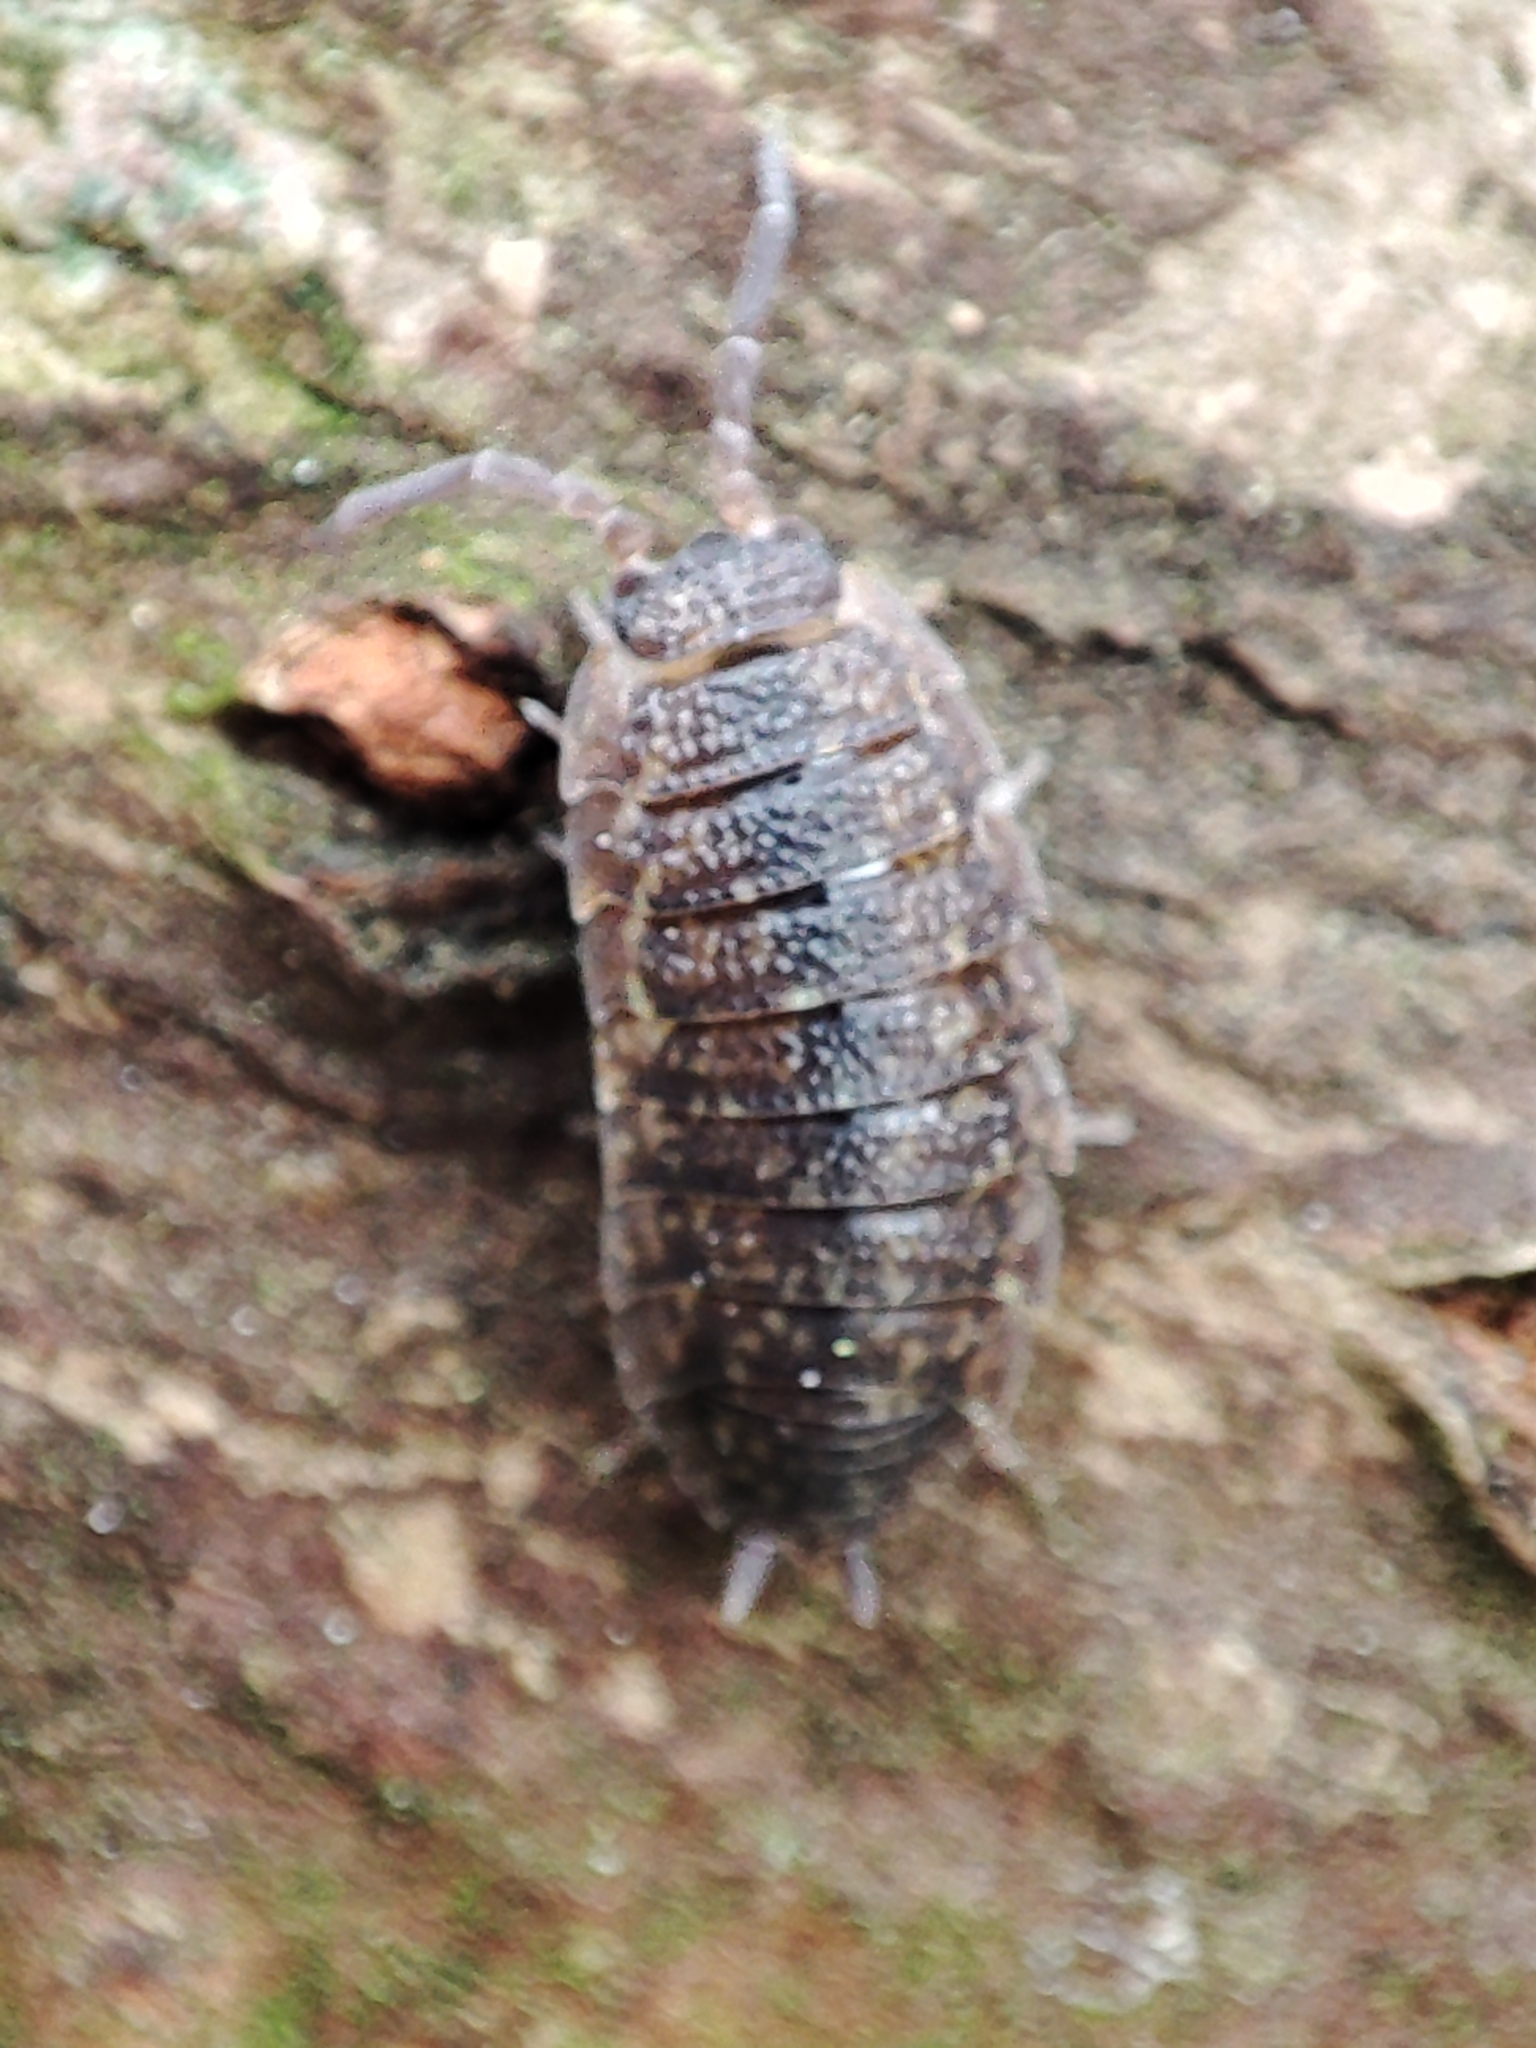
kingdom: Animalia
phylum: Arthropoda
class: Malacostraca
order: Isopoda
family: Porcellionidae
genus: Porcellio
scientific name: Porcellio scaber
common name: Common rough woodlouse
